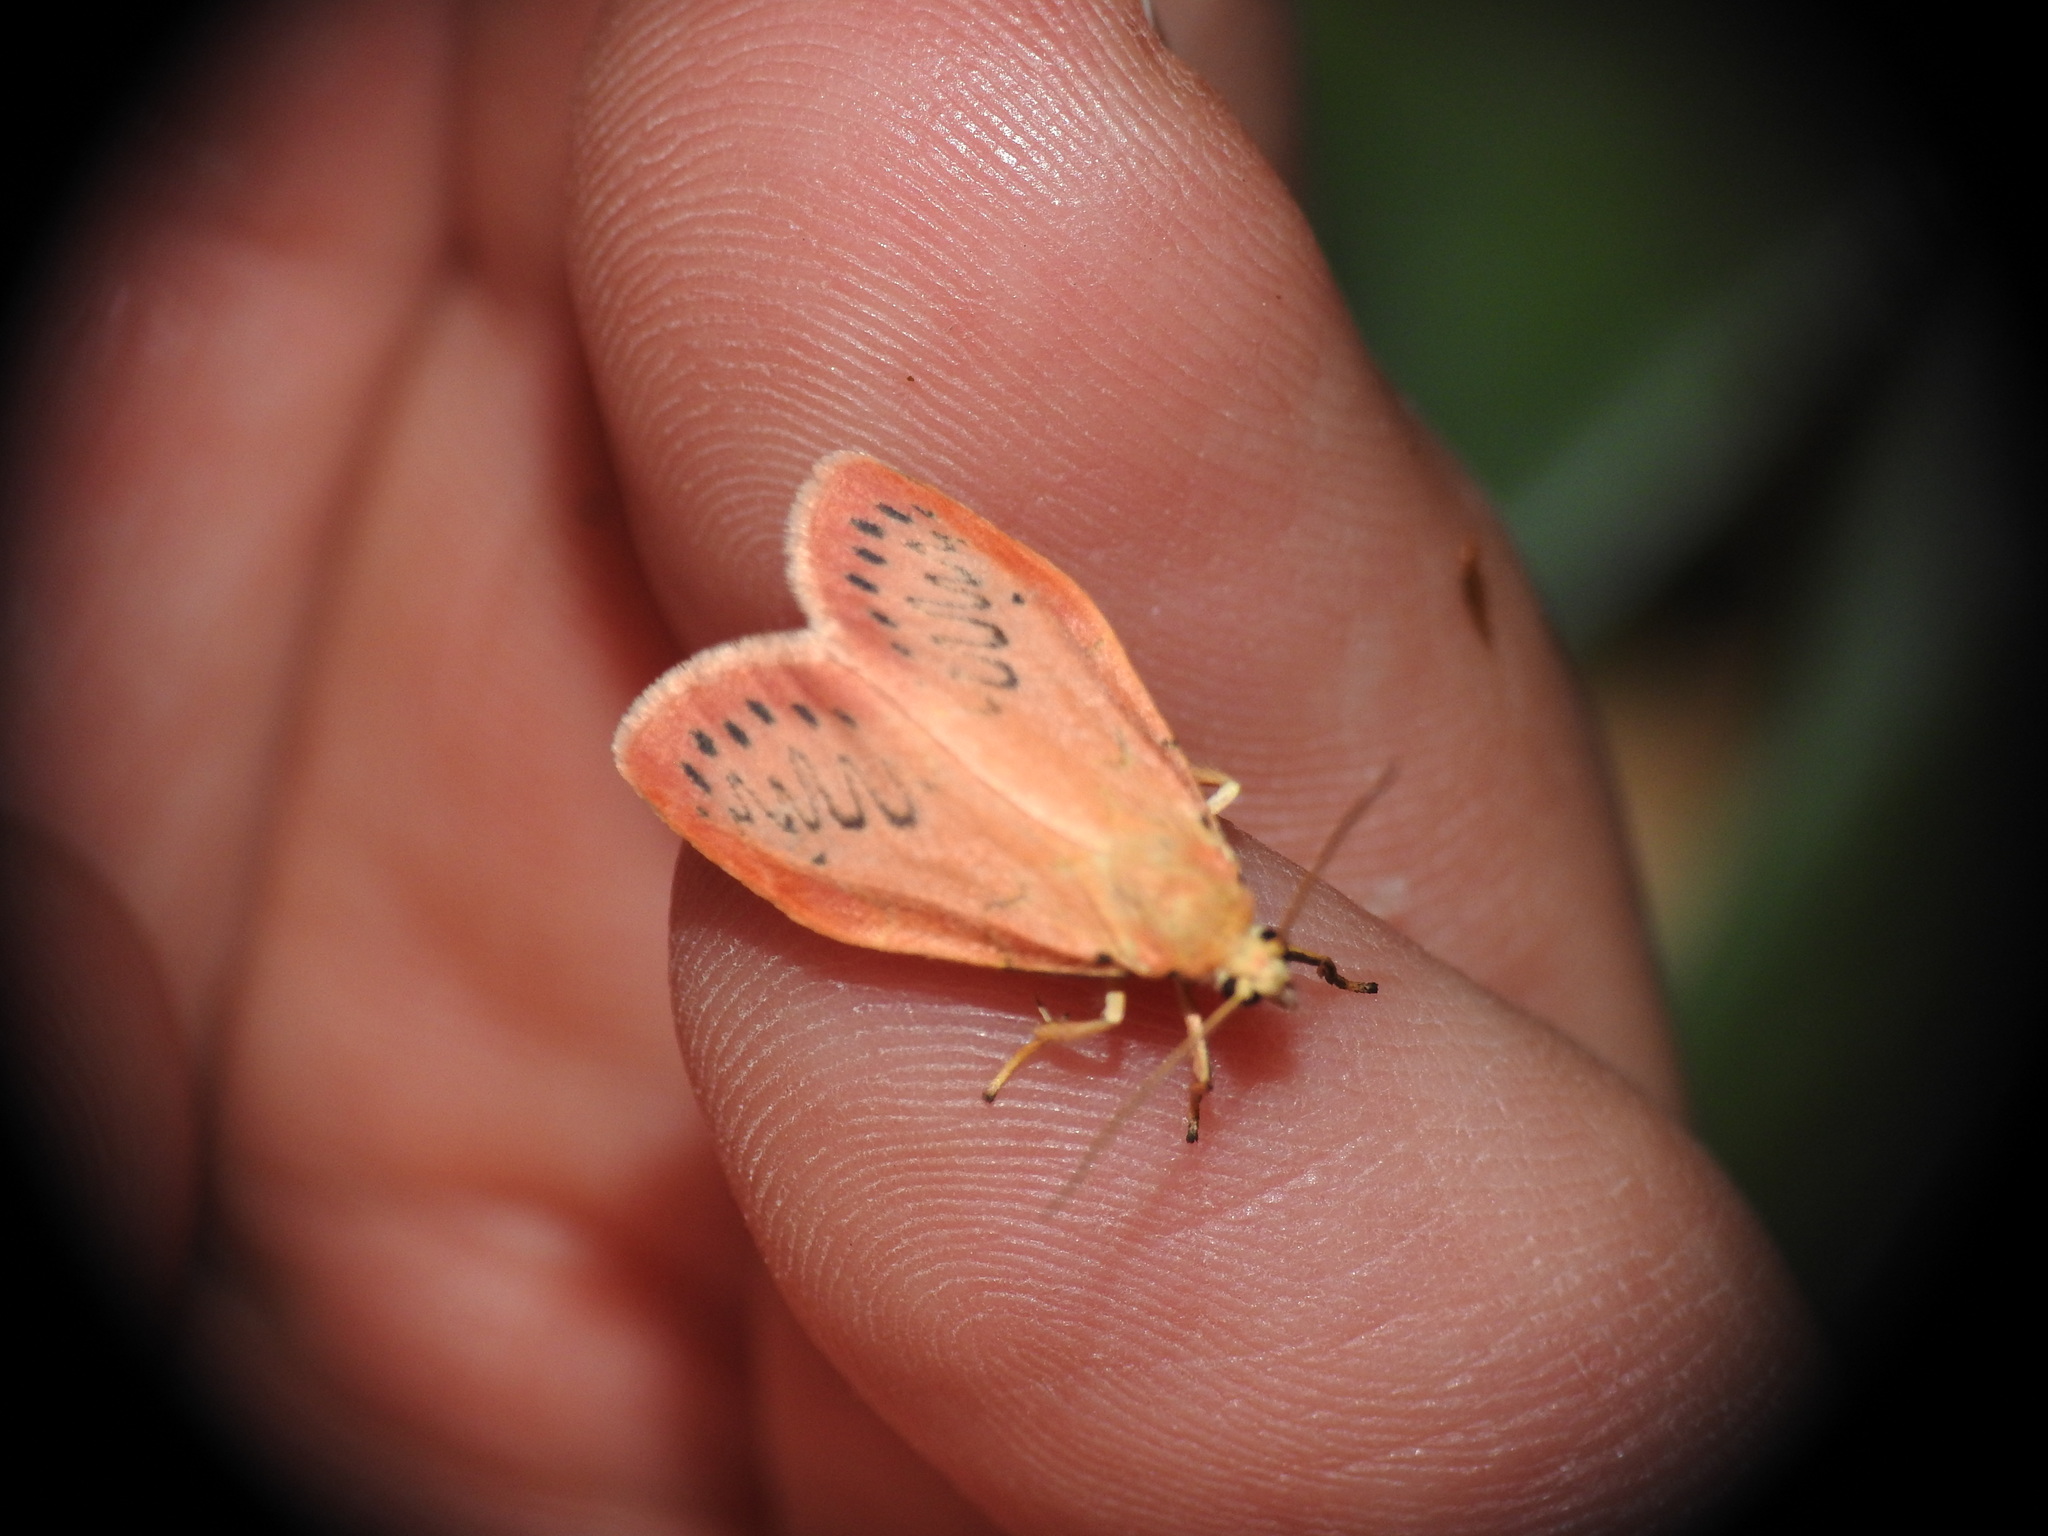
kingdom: Animalia
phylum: Arthropoda
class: Insecta
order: Lepidoptera
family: Erebidae
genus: Miltochrista
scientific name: Miltochrista miniata
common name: Rosy footman
